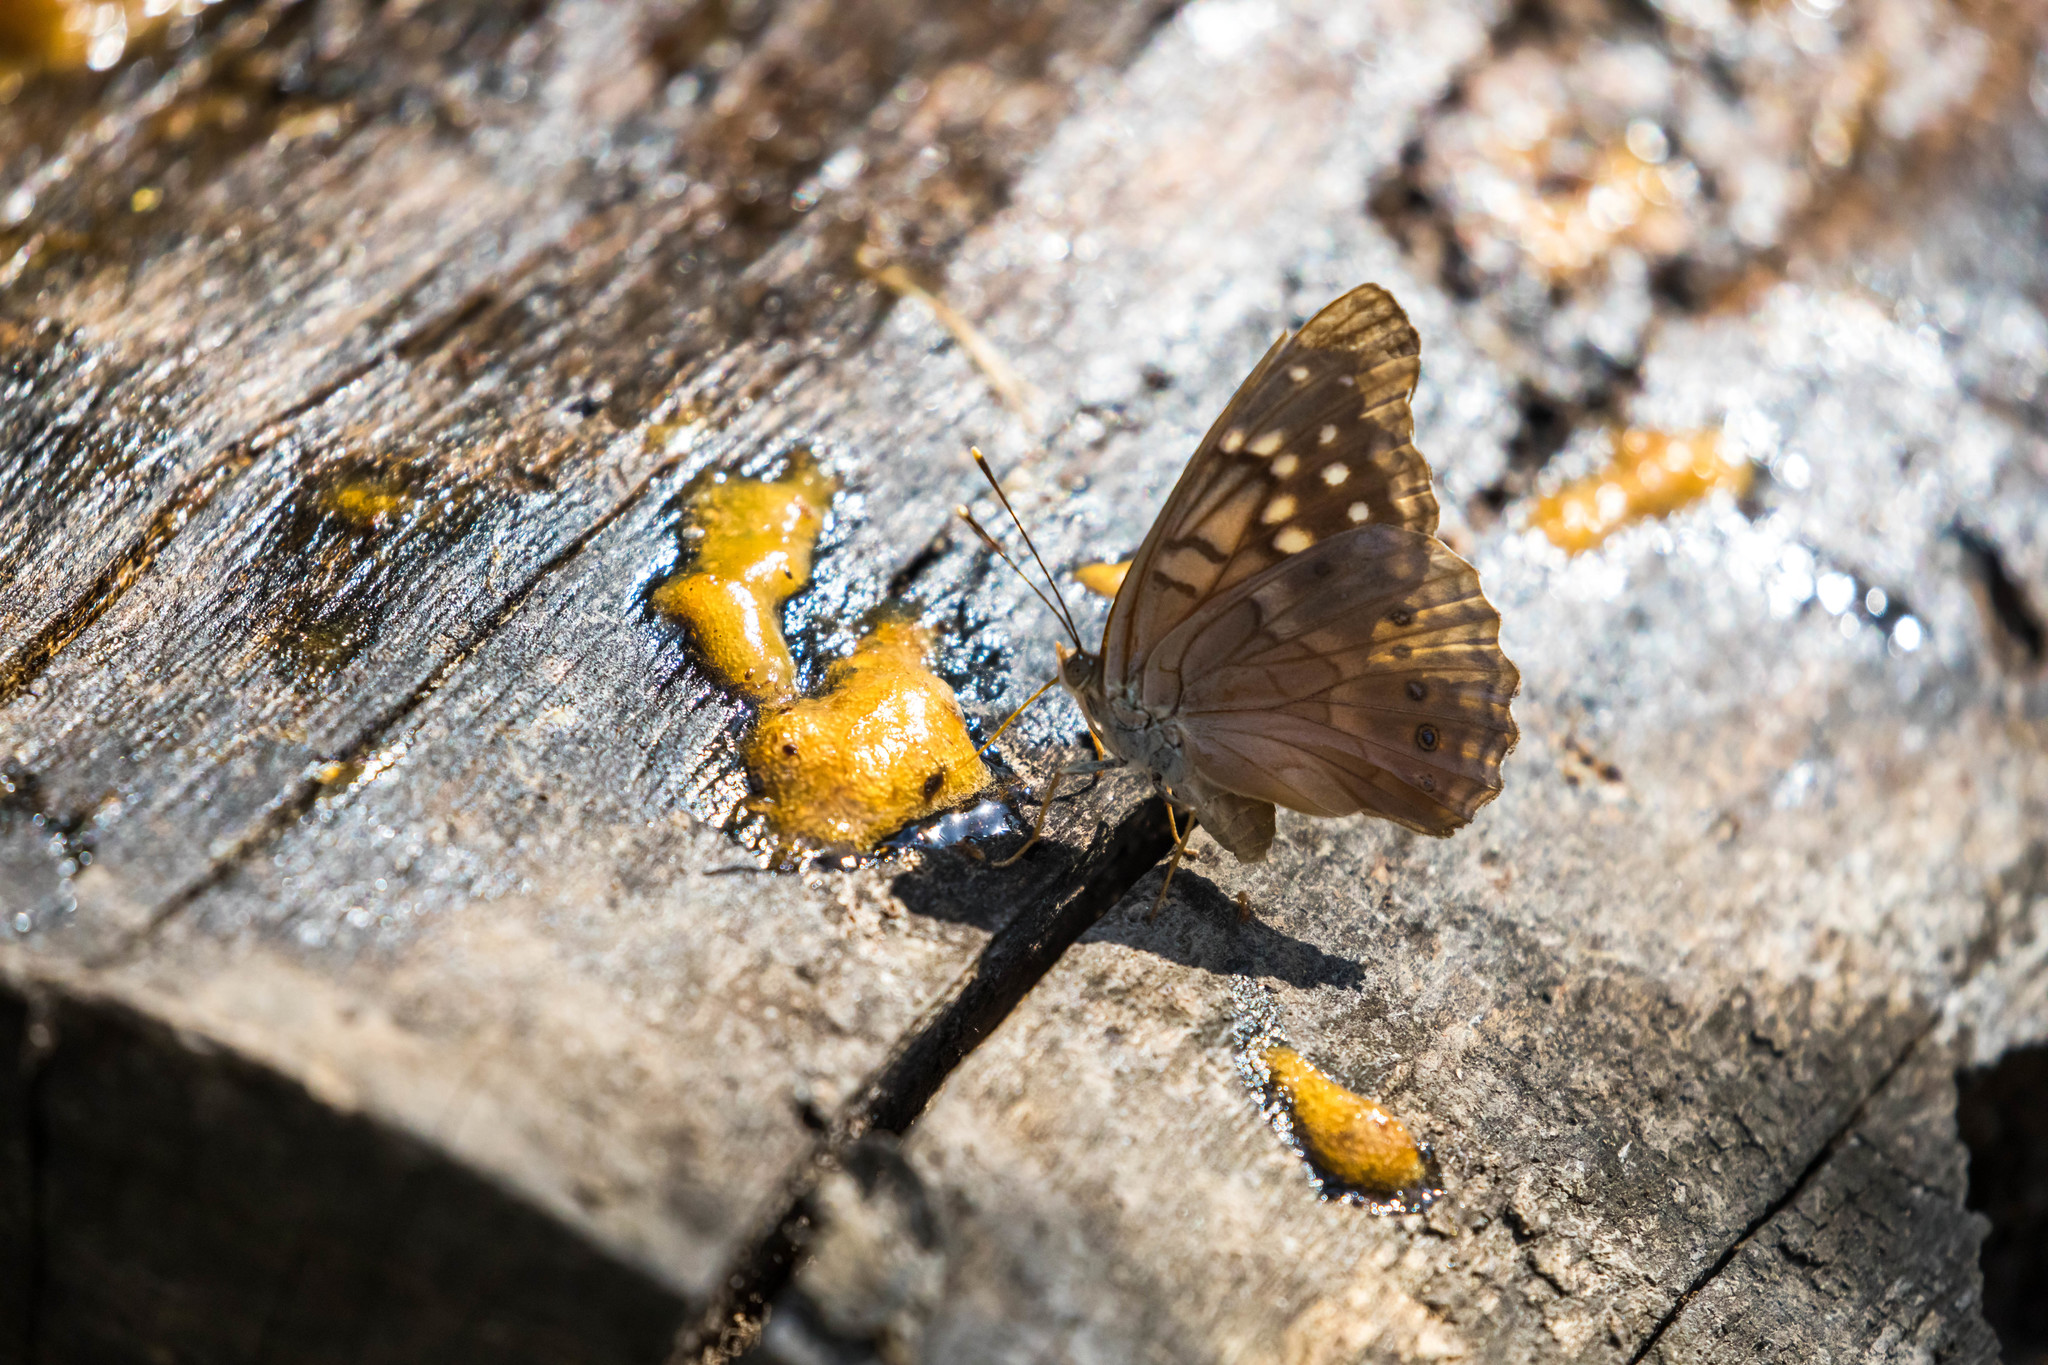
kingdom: Animalia
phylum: Arthropoda
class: Insecta
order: Lepidoptera
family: Nymphalidae
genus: Asterocampa
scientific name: Asterocampa clyton
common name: Tawny emperor
